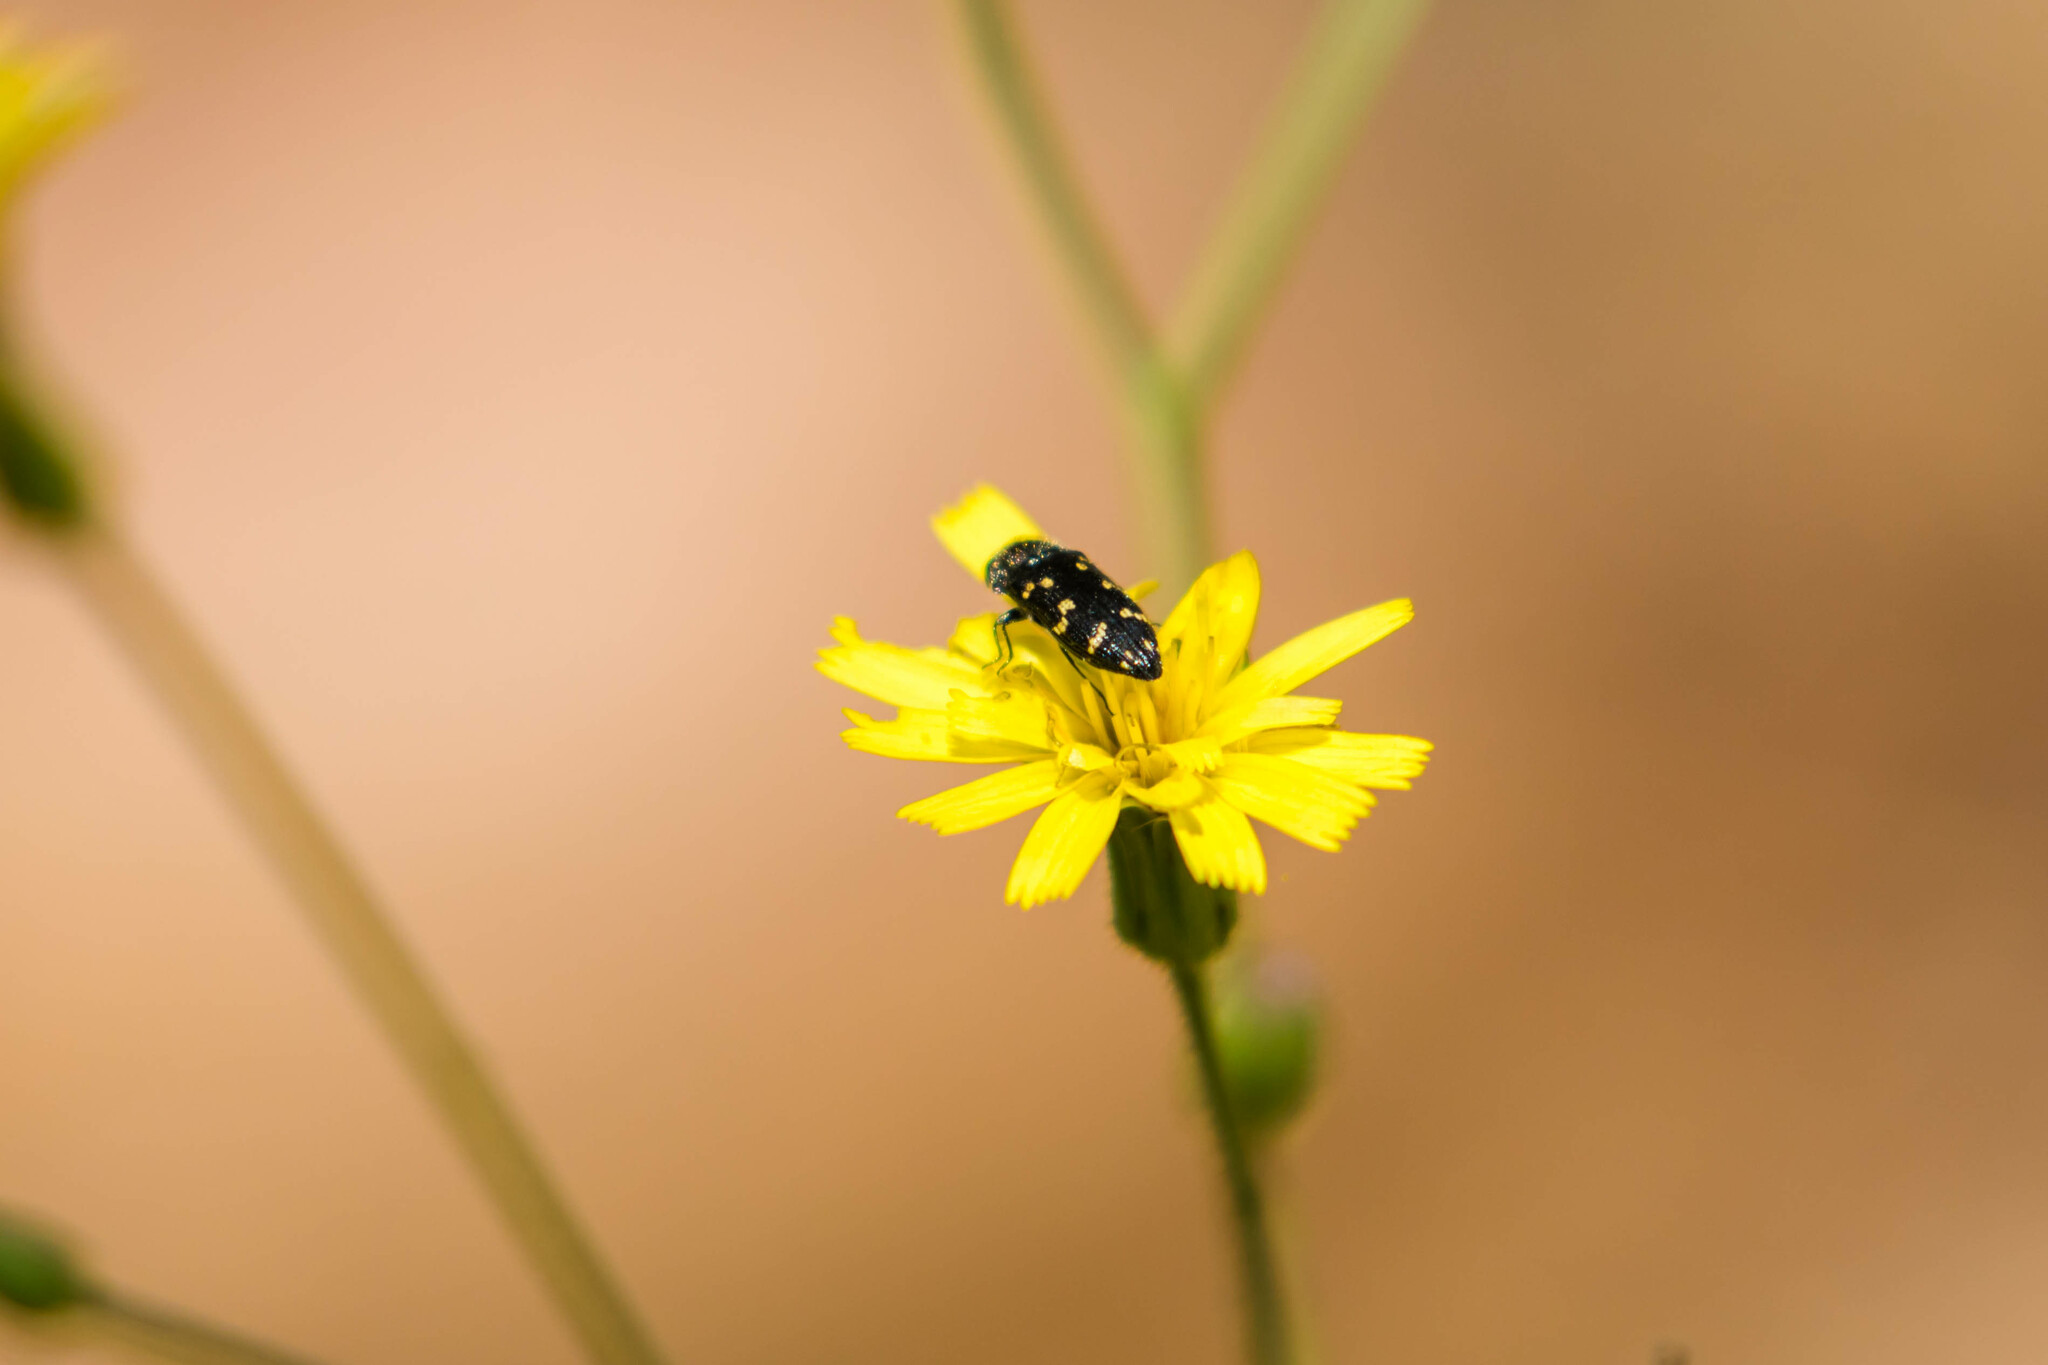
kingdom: Animalia
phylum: Arthropoda
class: Insecta
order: Coleoptera
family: Buprestidae
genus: Acmaeodera
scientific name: Acmaeodera tubulus
